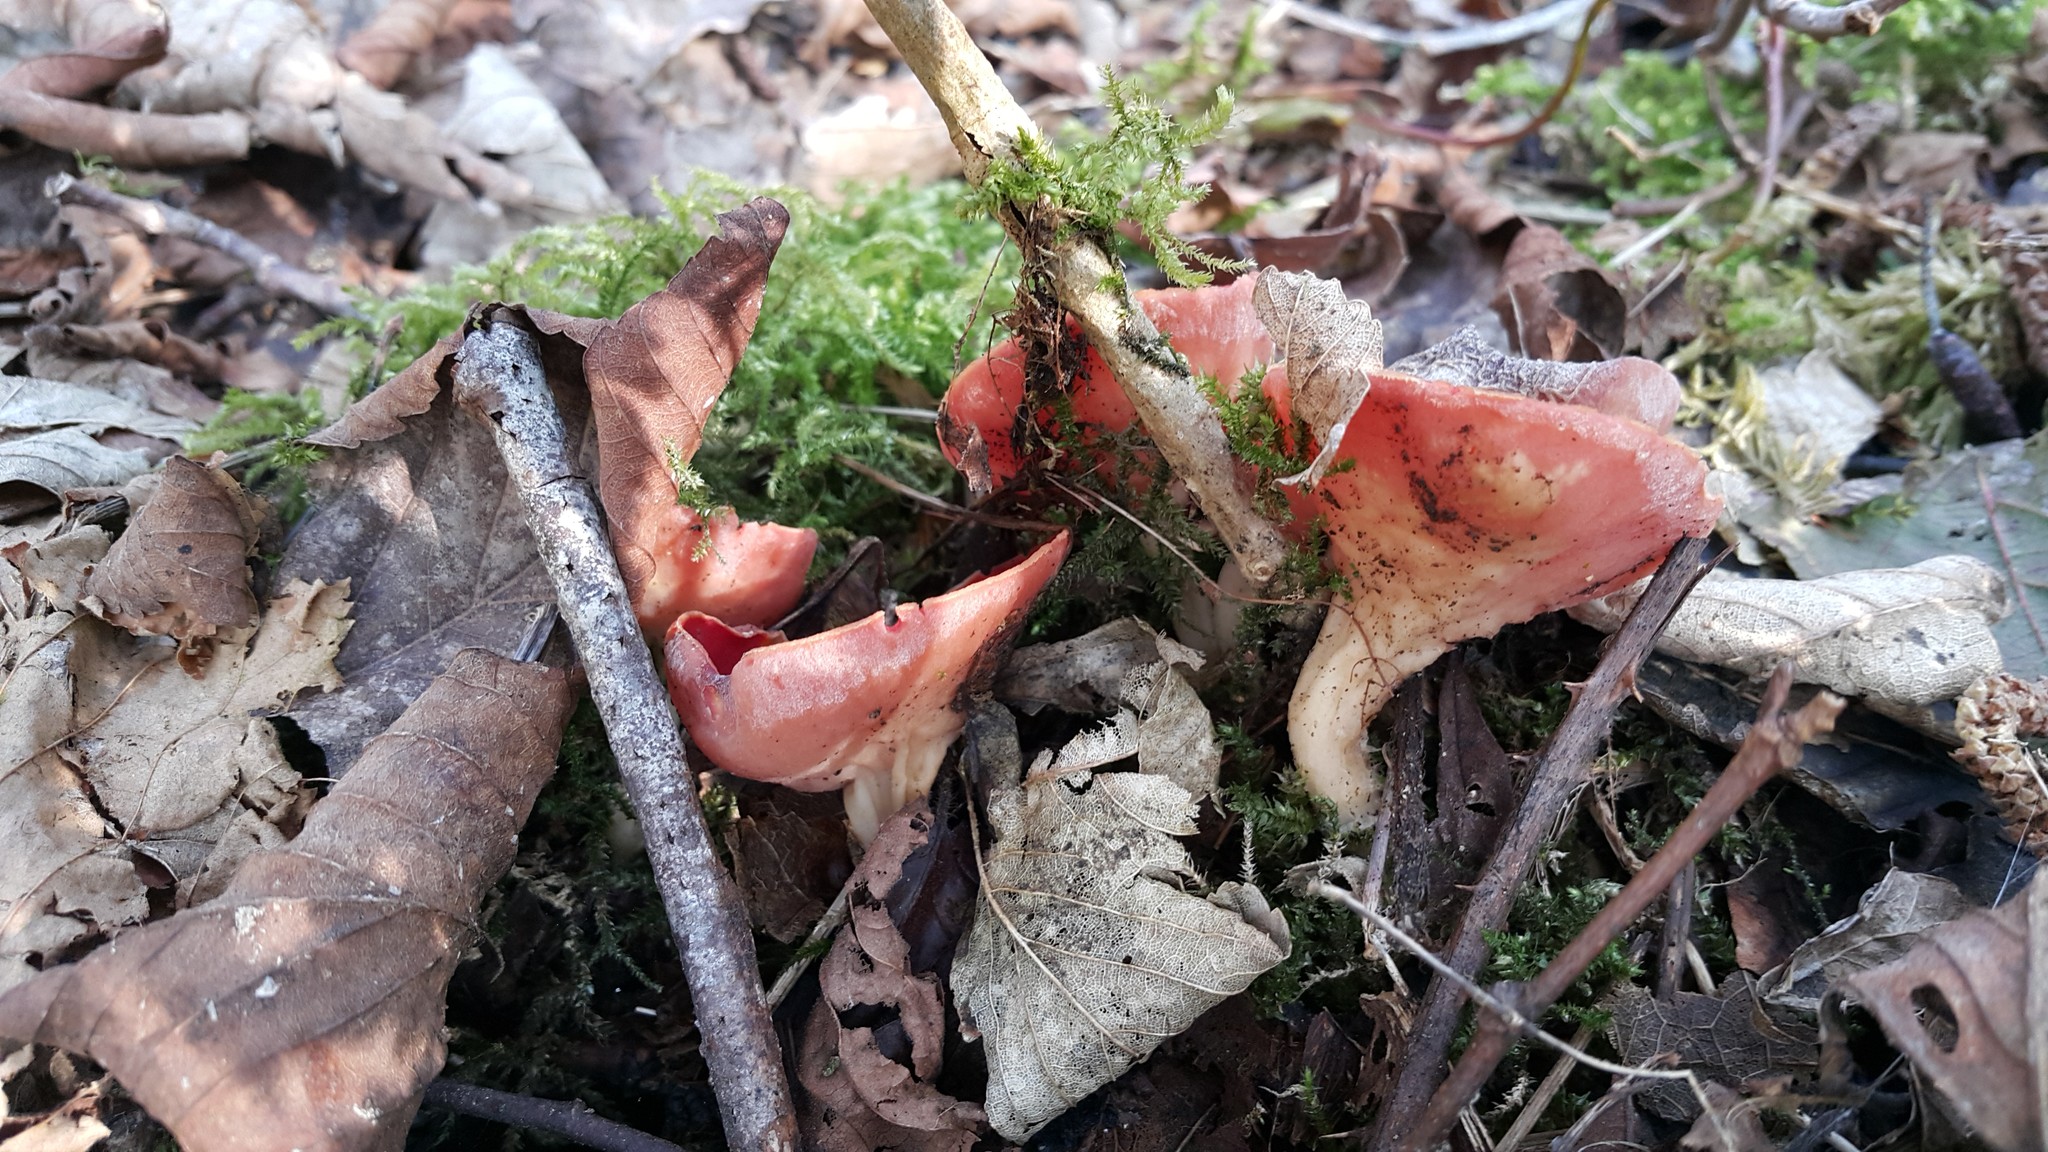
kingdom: Fungi
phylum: Ascomycota
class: Pezizomycetes
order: Pezizales
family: Sarcoscyphaceae
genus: Sarcoscypha
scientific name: Sarcoscypha
